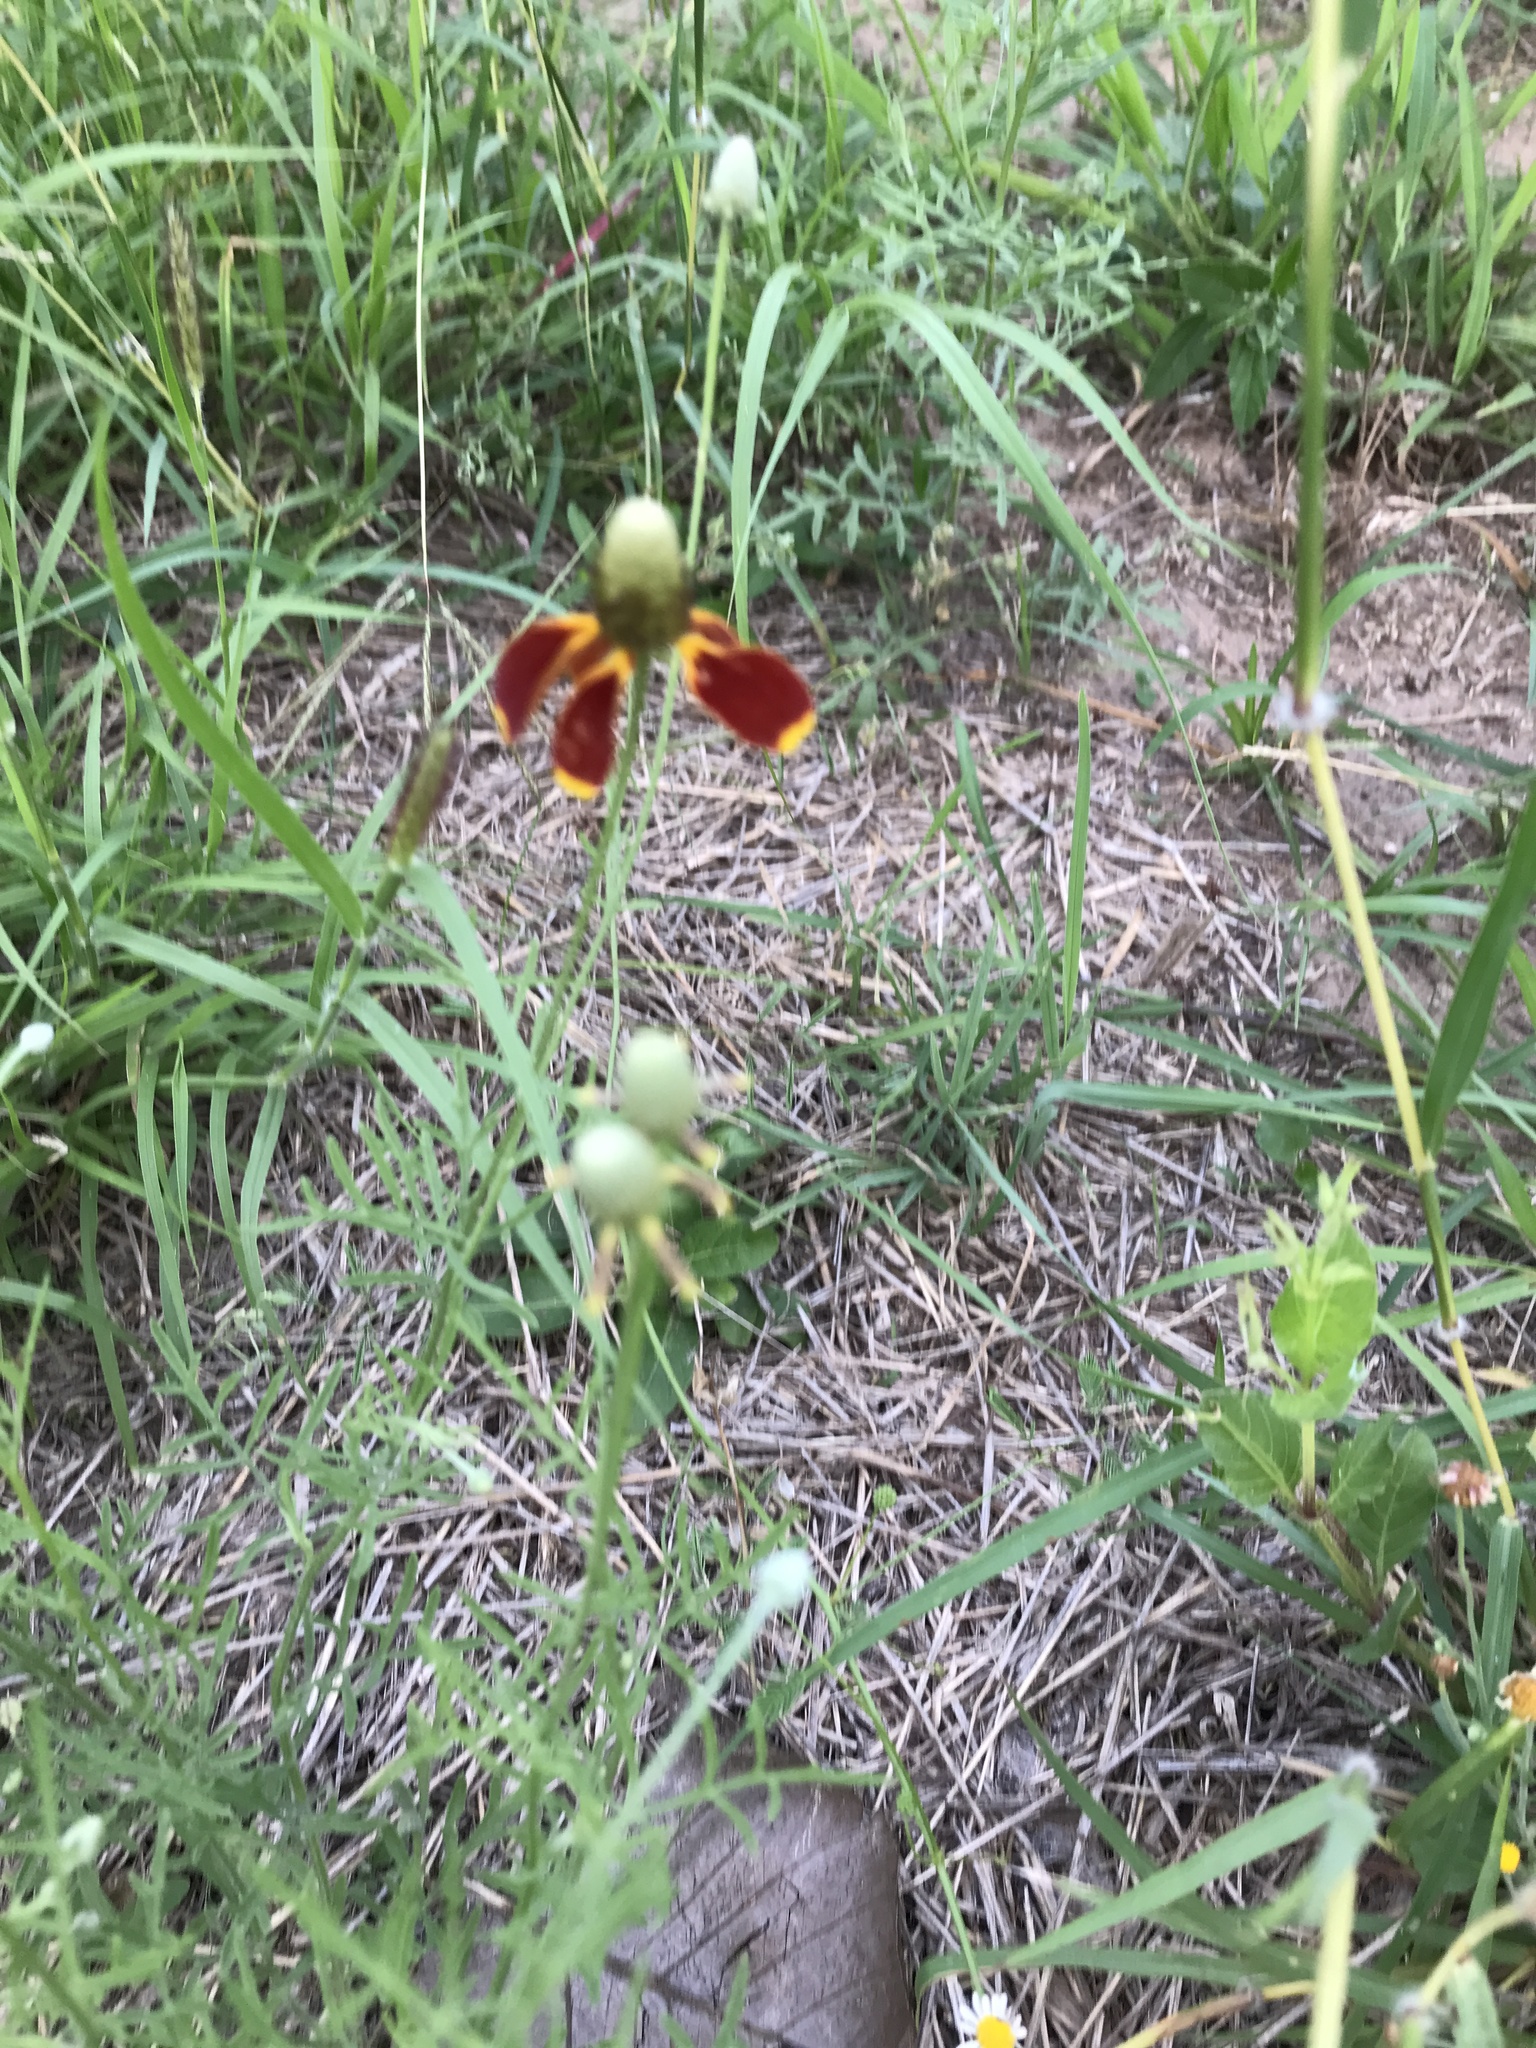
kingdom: Plantae
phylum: Tracheophyta
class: Magnoliopsida
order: Asterales
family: Asteraceae
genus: Ratibida
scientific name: Ratibida columnifera
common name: Prairie coneflower
